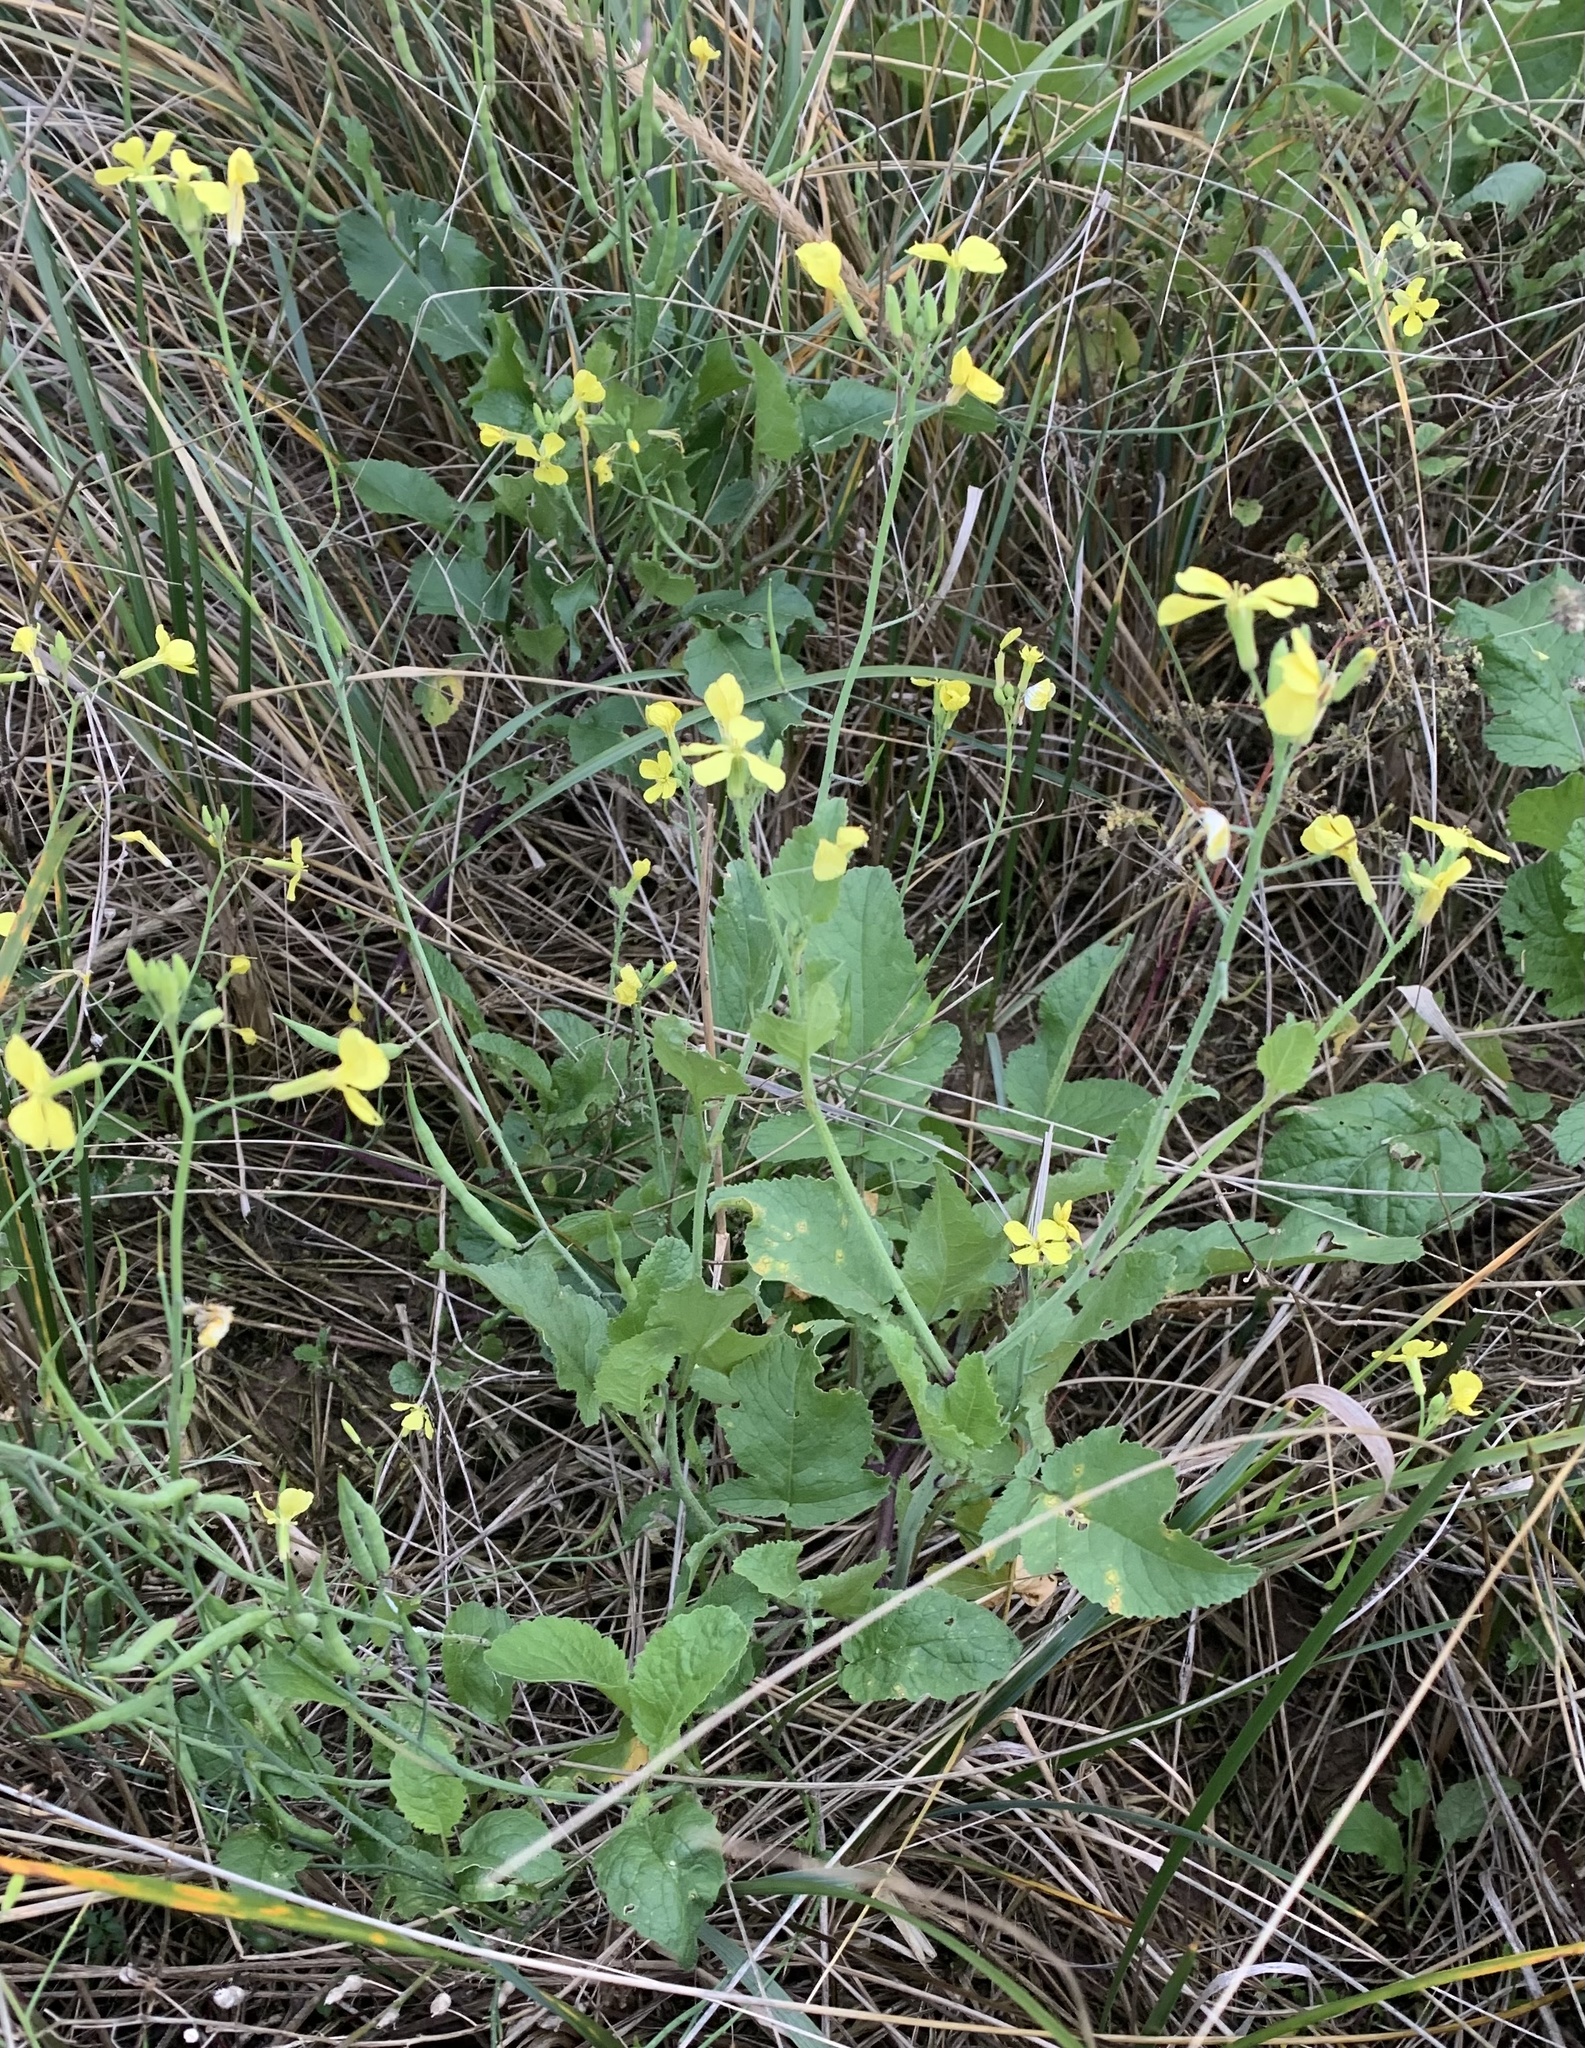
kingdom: Plantae
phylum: Tracheophyta
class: Magnoliopsida
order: Brassicales
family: Brassicaceae
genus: Raphanus
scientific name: Raphanus raphanistrum
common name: Wild radish
